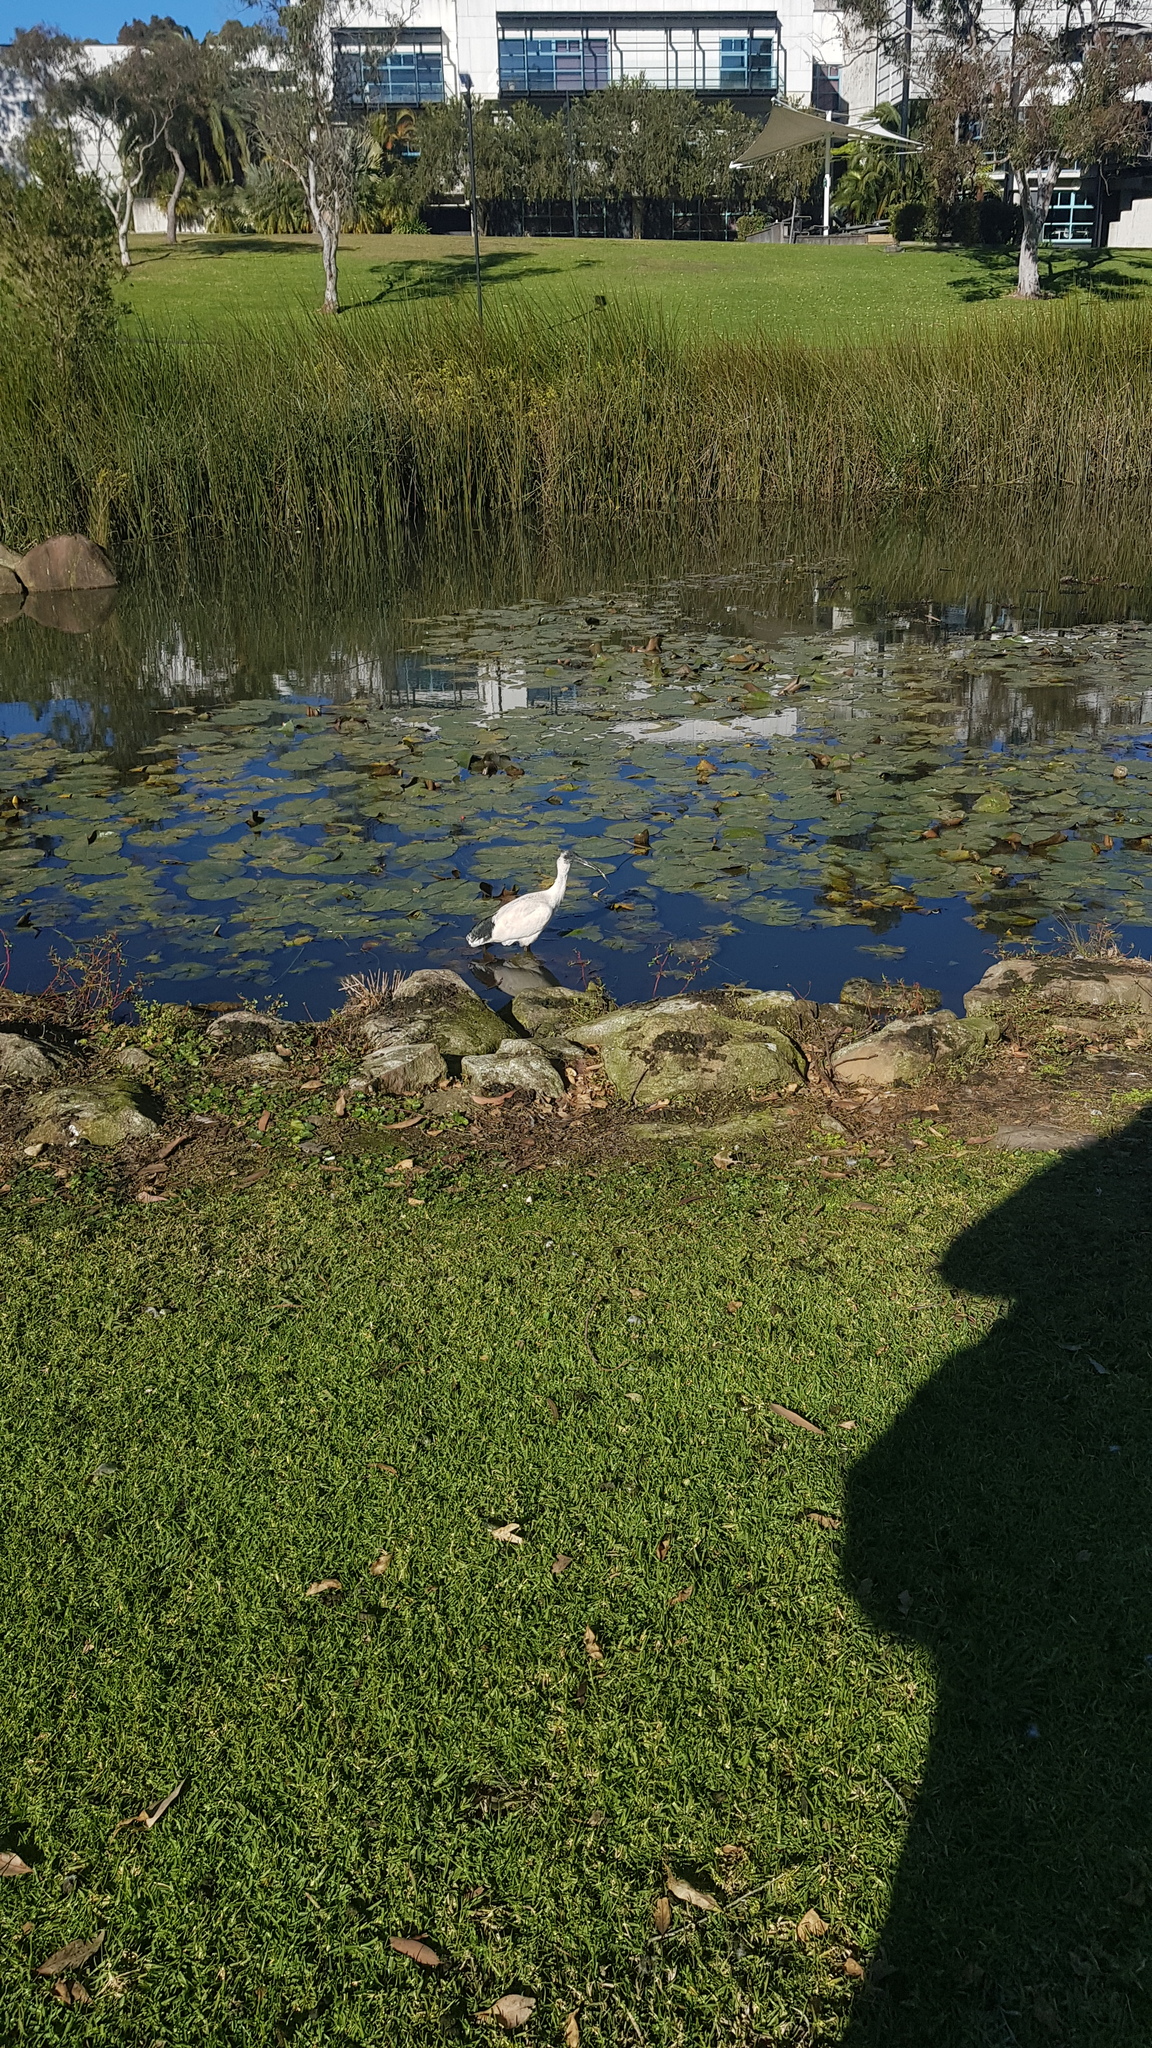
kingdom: Animalia
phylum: Chordata
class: Aves
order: Pelecaniformes
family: Threskiornithidae
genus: Threskiornis
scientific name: Threskiornis molucca
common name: Australian white ibis
